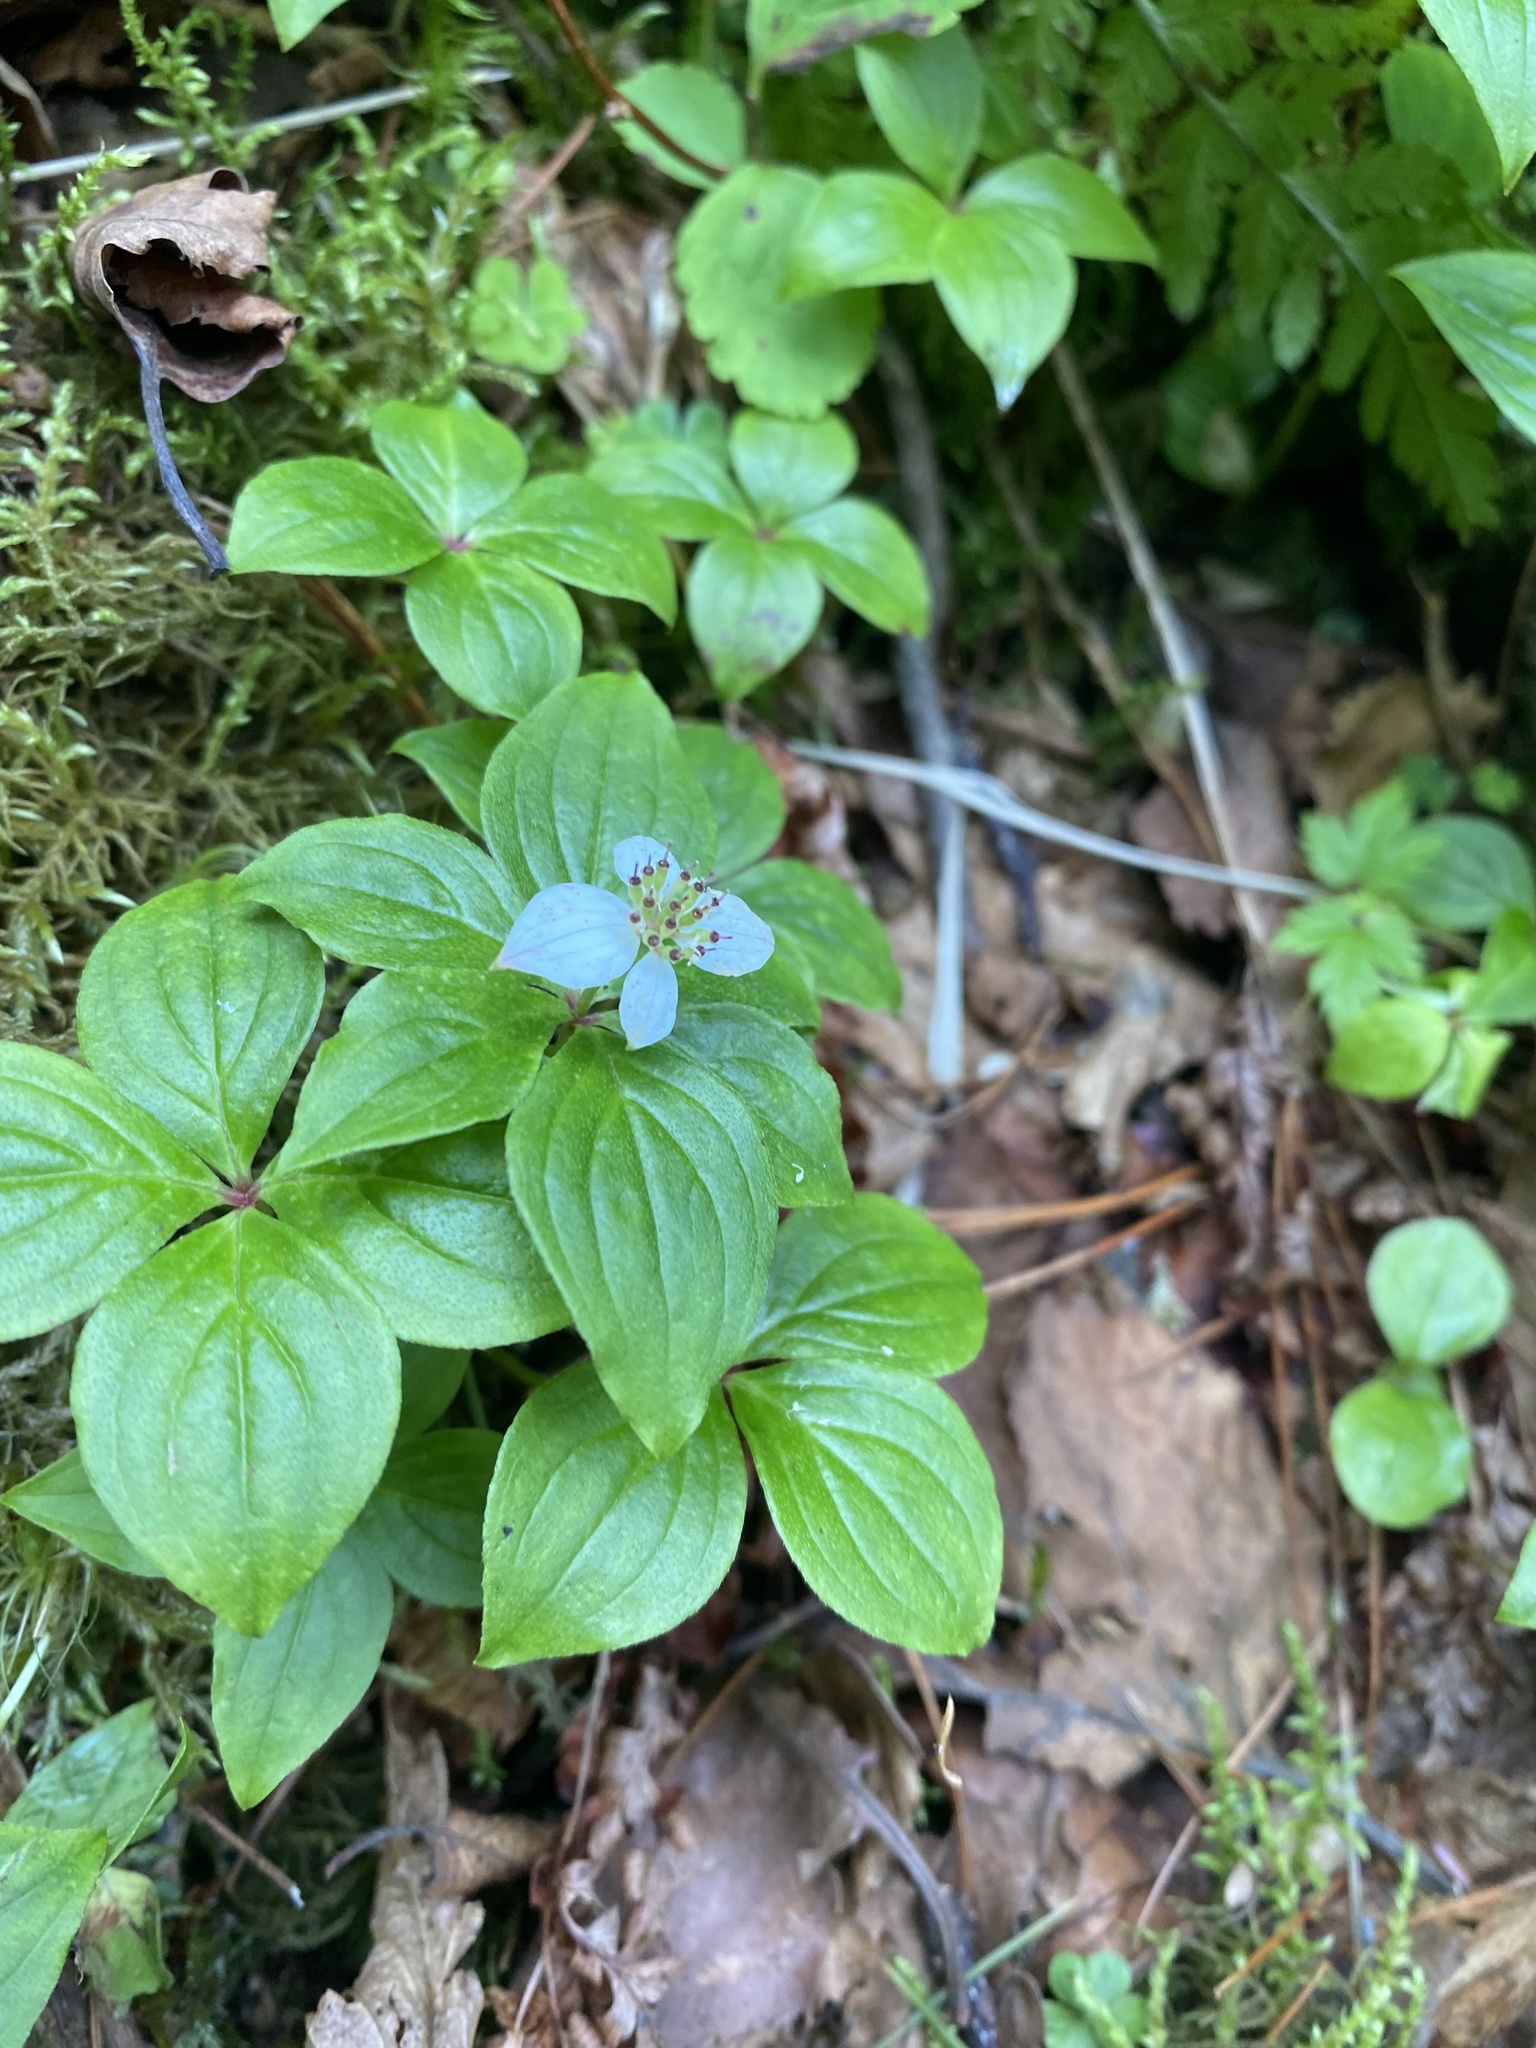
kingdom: Plantae
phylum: Tracheophyta
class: Magnoliopsida
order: Cornales
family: Cornaceae
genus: Cornus
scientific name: Cornus canadensis
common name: Creeping dogwood
